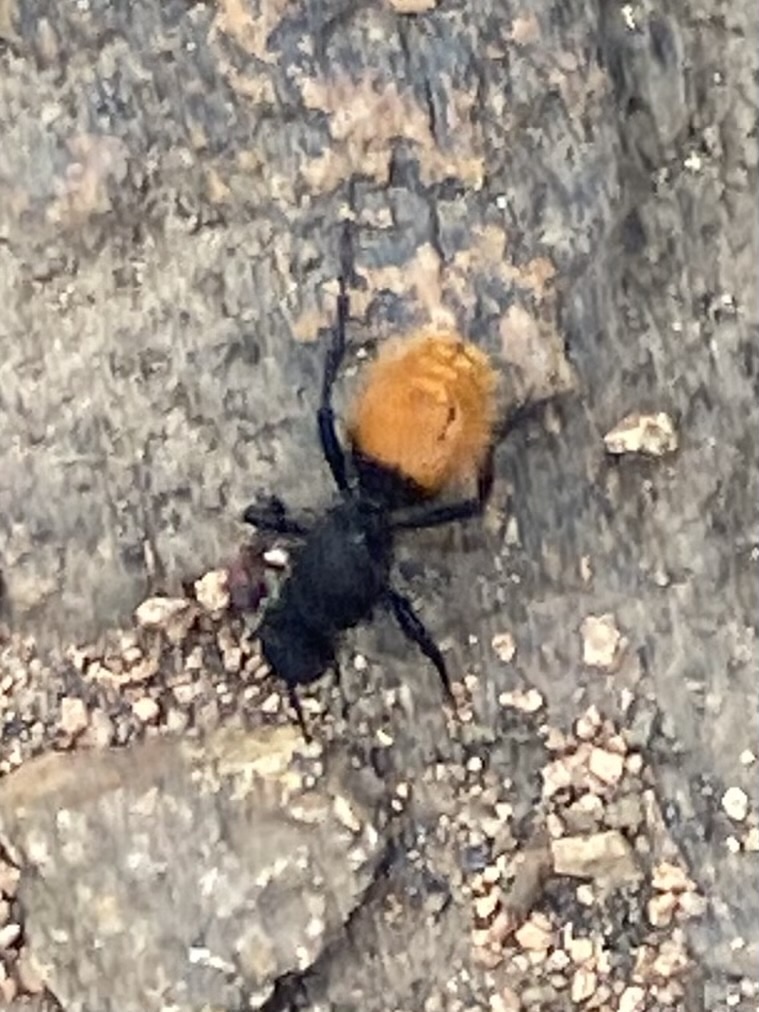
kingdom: Animalia
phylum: Arthropoda
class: Insecta
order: Hymenoptera
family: Mutillidae
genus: Dasymutilla
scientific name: Dasymutilla
